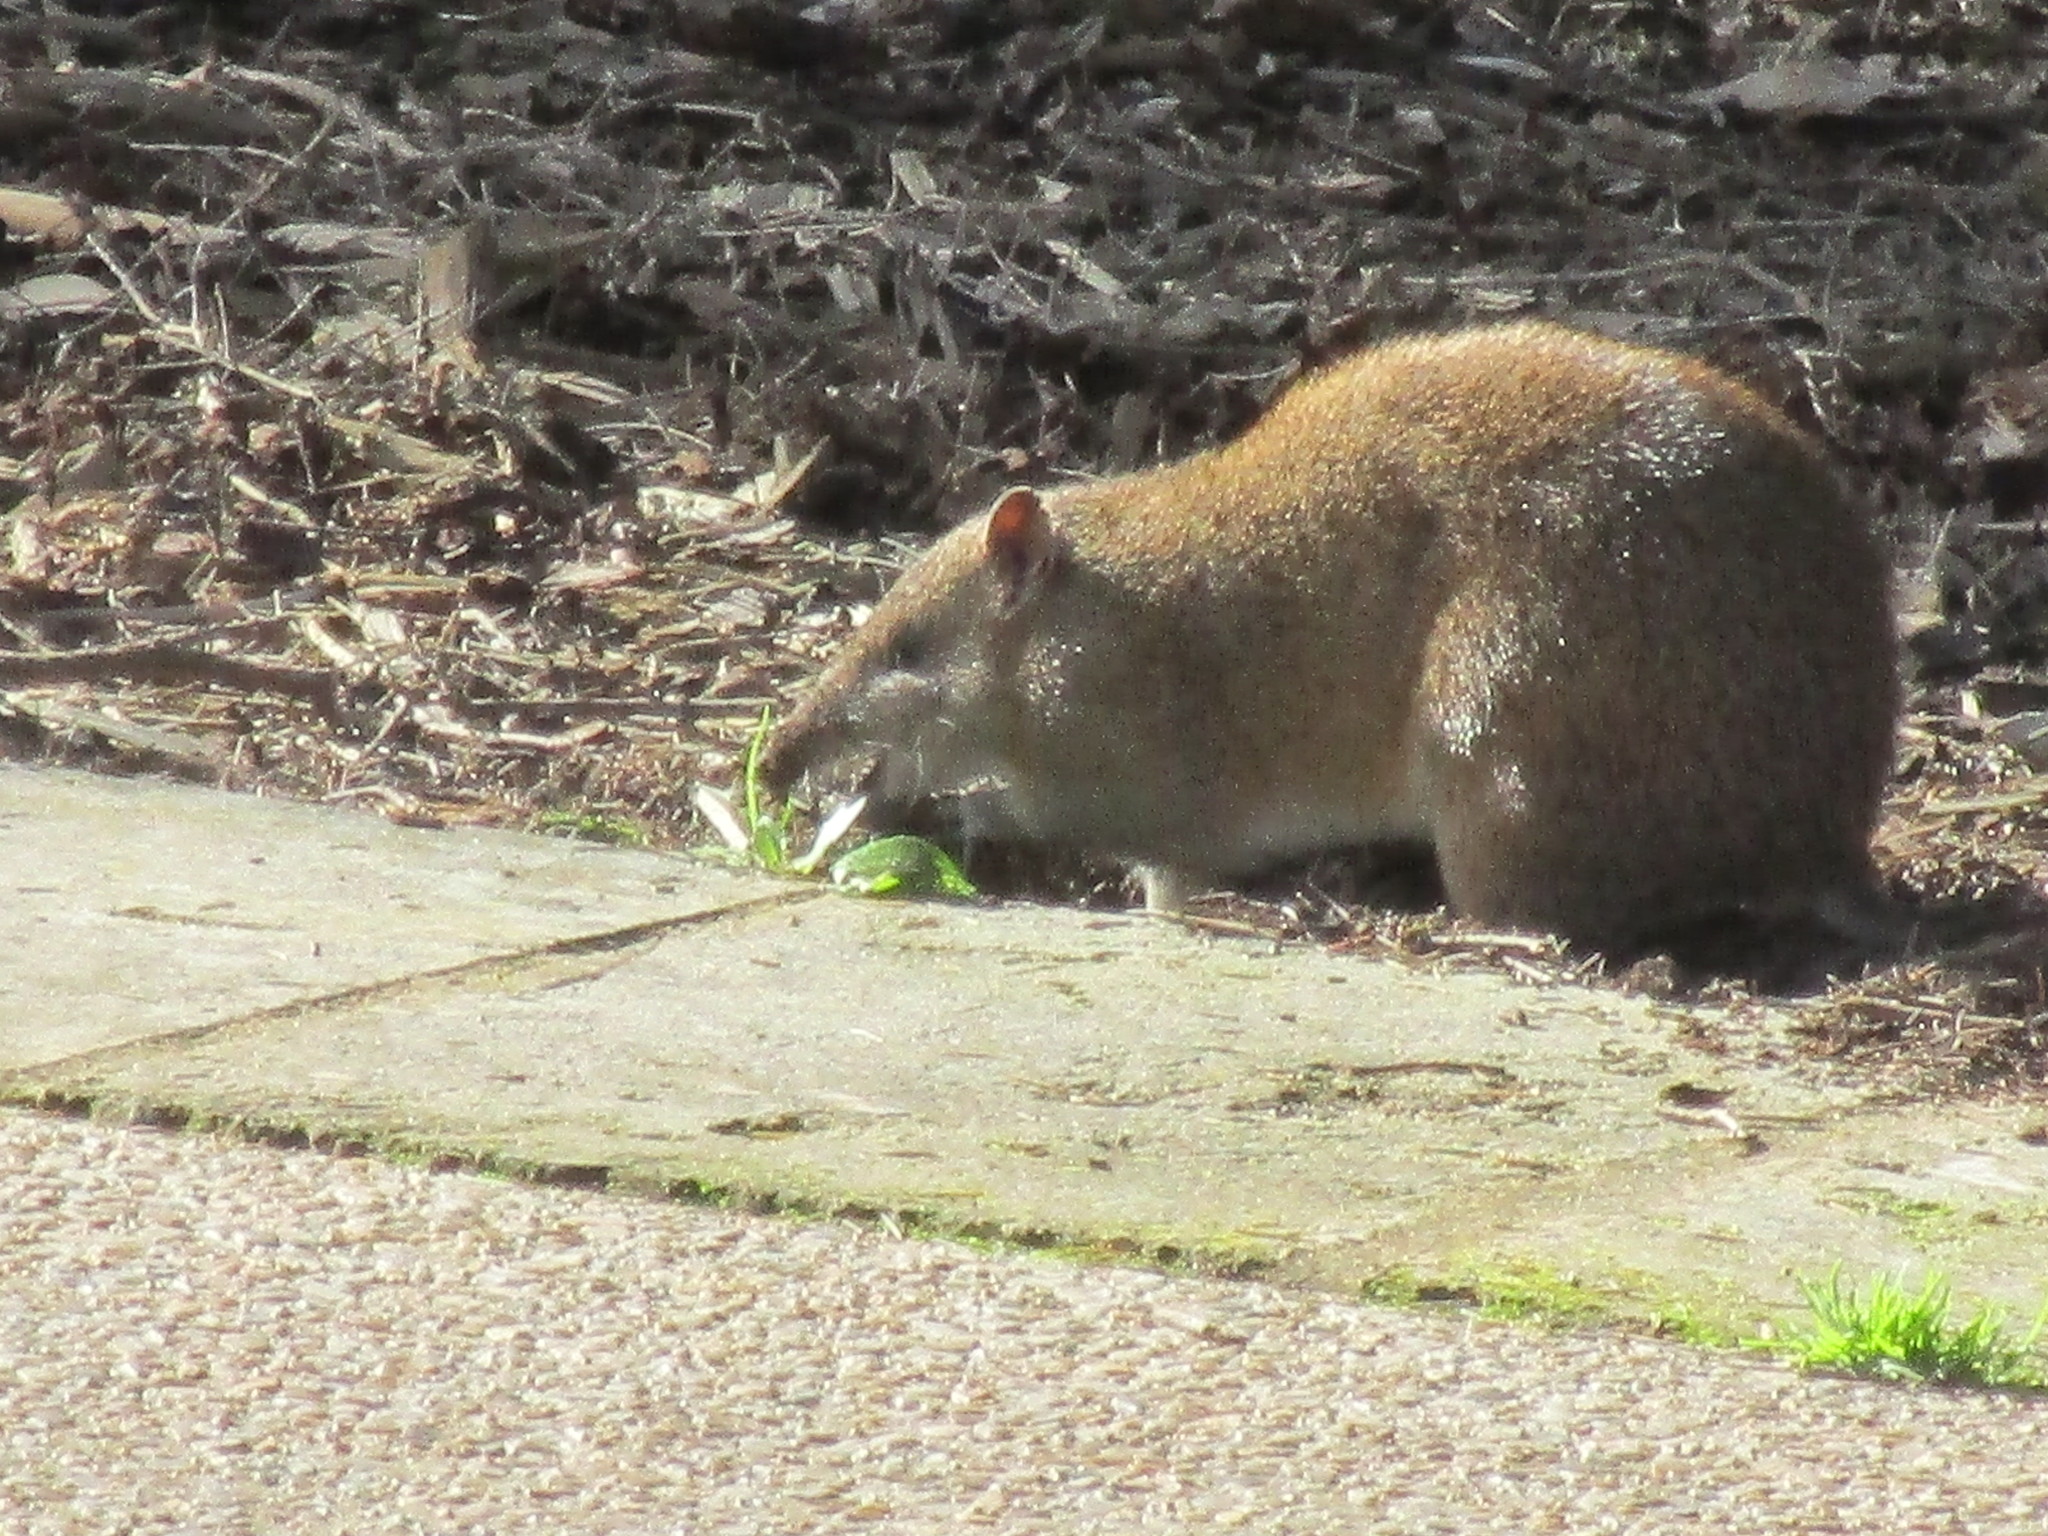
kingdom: Animalia
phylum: Chordata
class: Mammalia
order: Peramelemorphia
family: Peramelidae
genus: Isoodon
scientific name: Isoodon fusciventer
